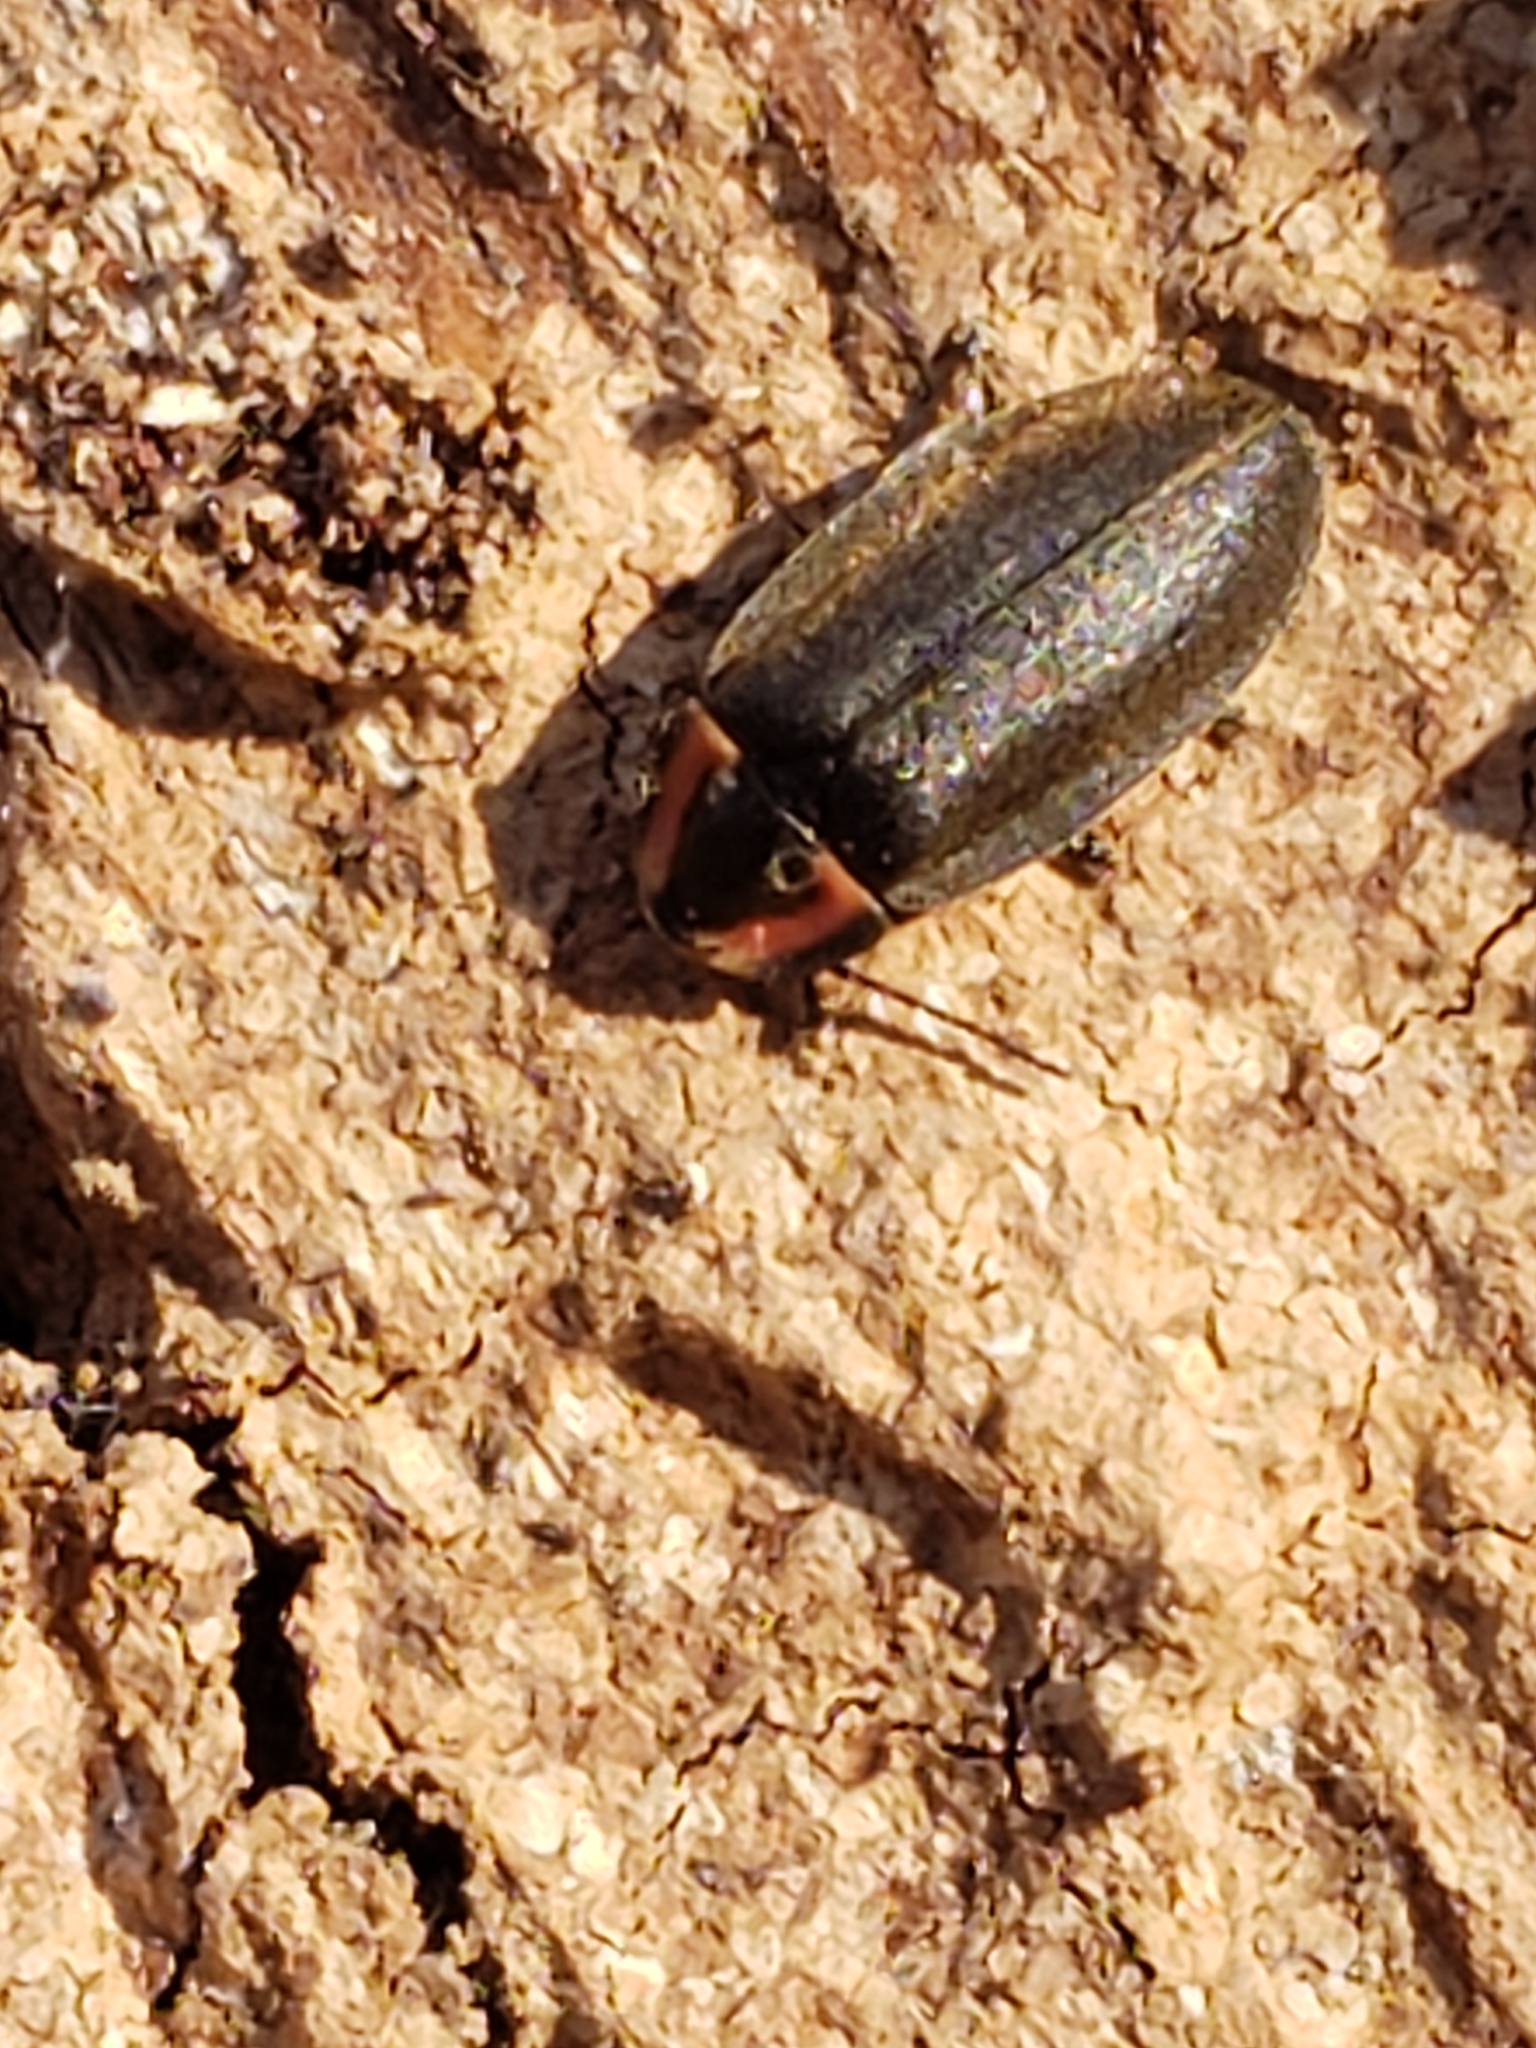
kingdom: Animalia
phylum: Arthropoda
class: Insecta
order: Coleoptera
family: Lampyridae
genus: Photinus
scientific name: Photinus corrusca
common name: Winter firefly
